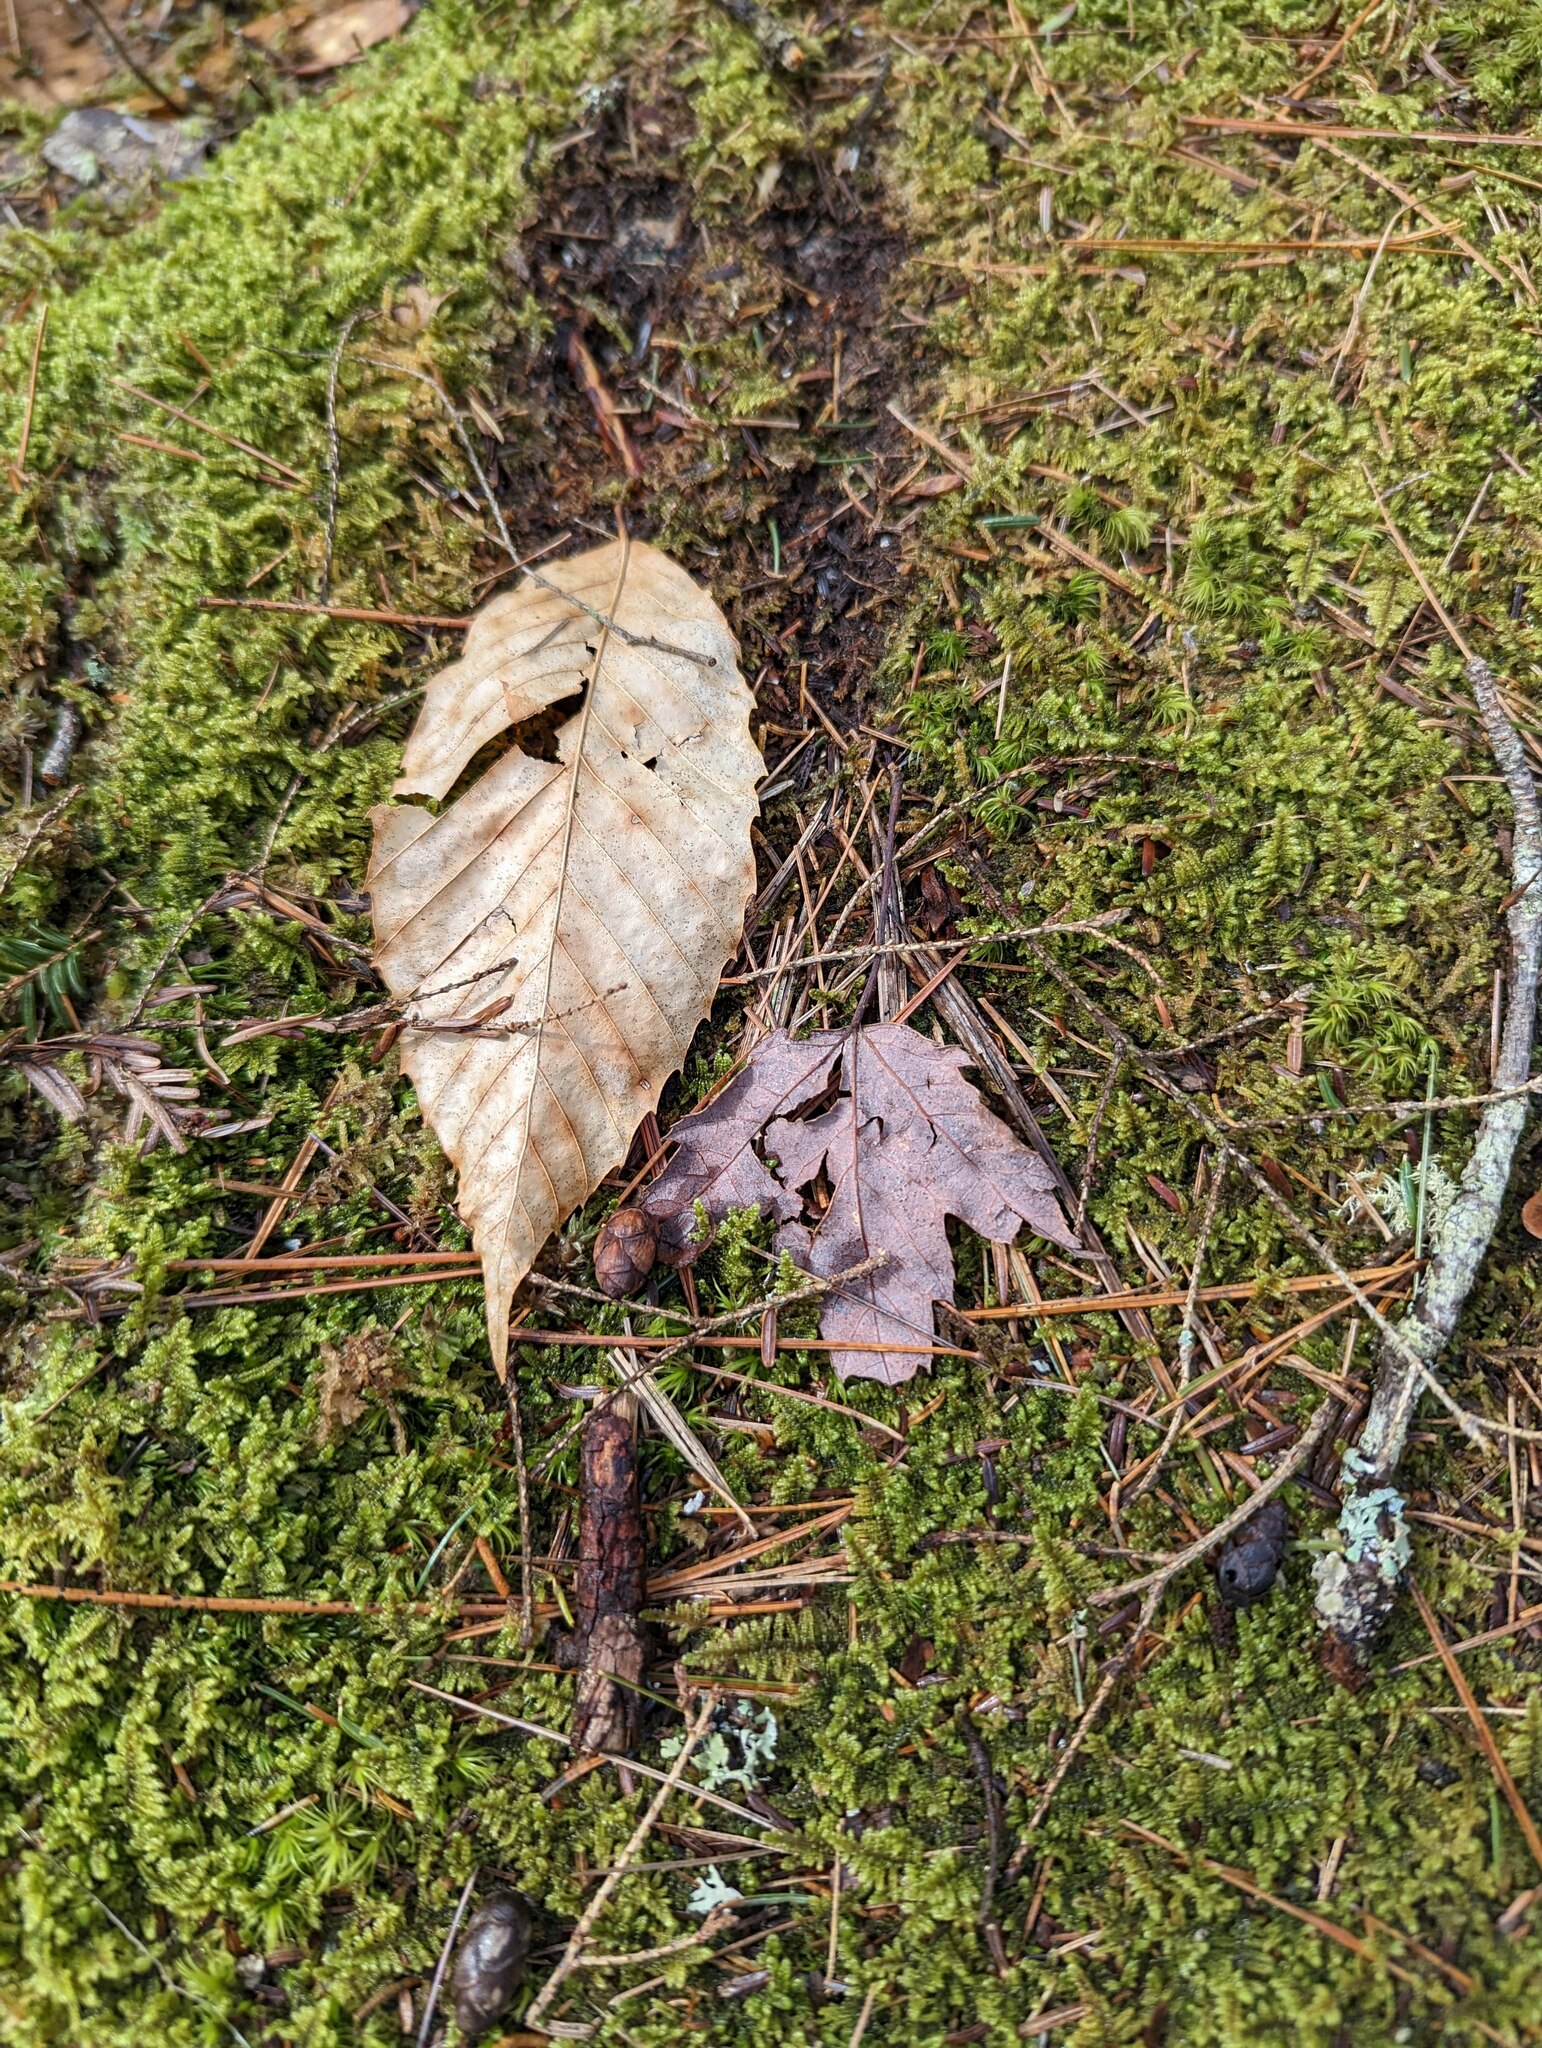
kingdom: Plantae
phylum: Tracheophyta
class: Magnoliopsida
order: Fagales
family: Fagaceae
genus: Fagus
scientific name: Fagus grandifolia
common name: American beech
